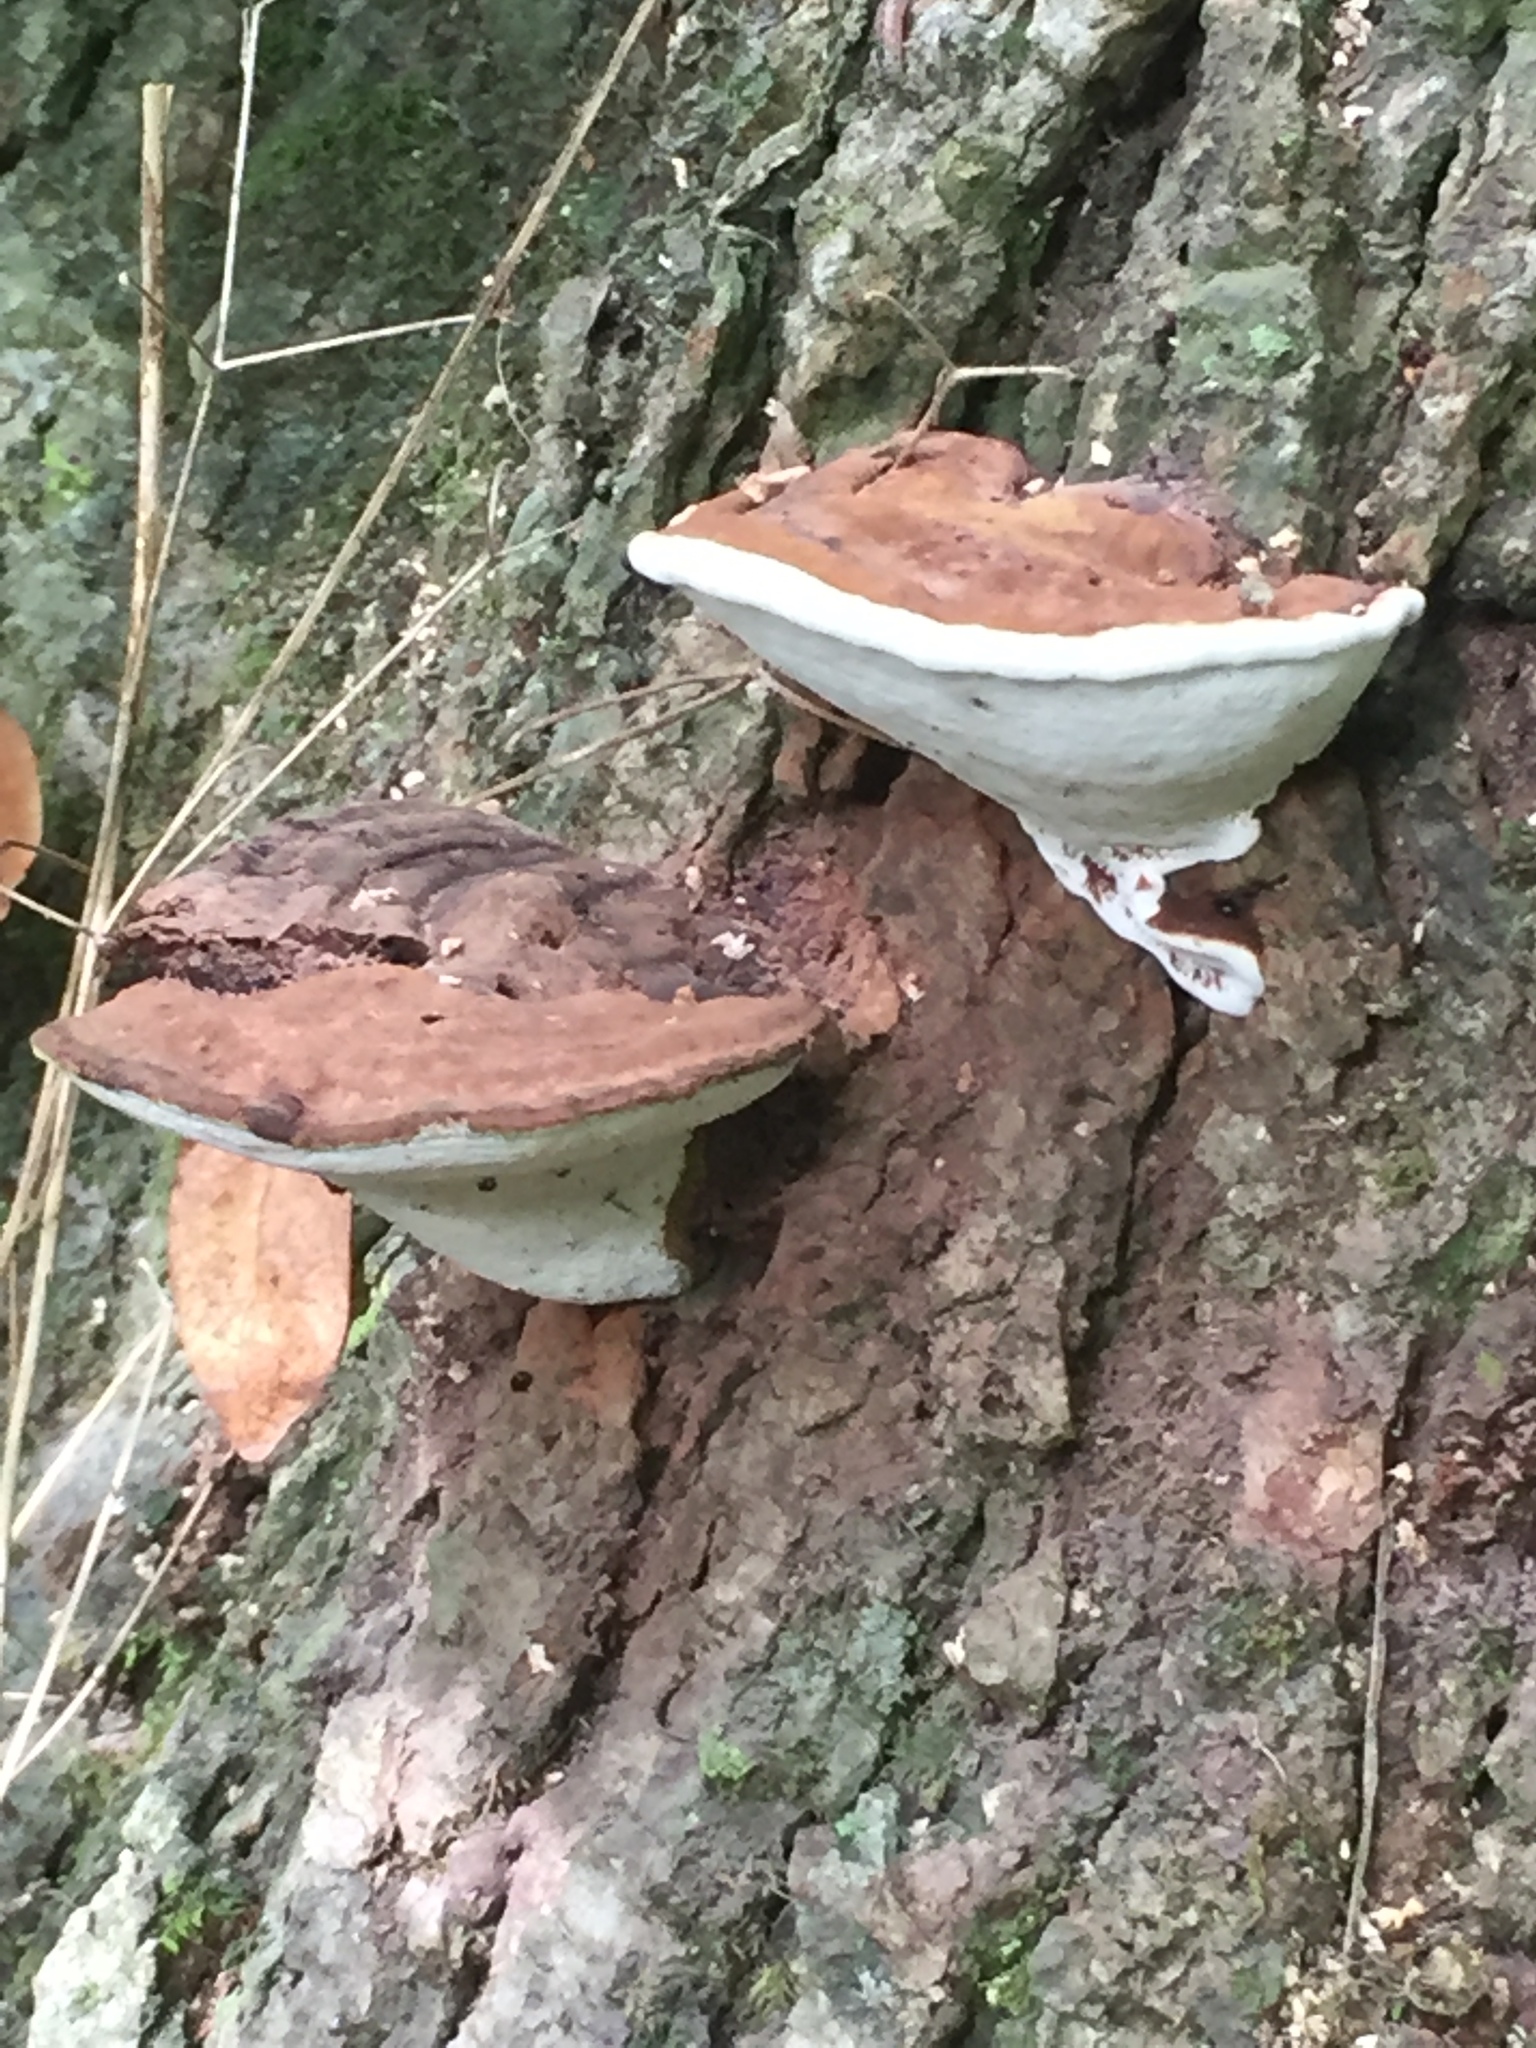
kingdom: Fungi
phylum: Basidiomycota
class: Agaricomycetes
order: Polyporales
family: Polyporaceae
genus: Ganoderma
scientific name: Ganoderma applanatum
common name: Artist's bracket
